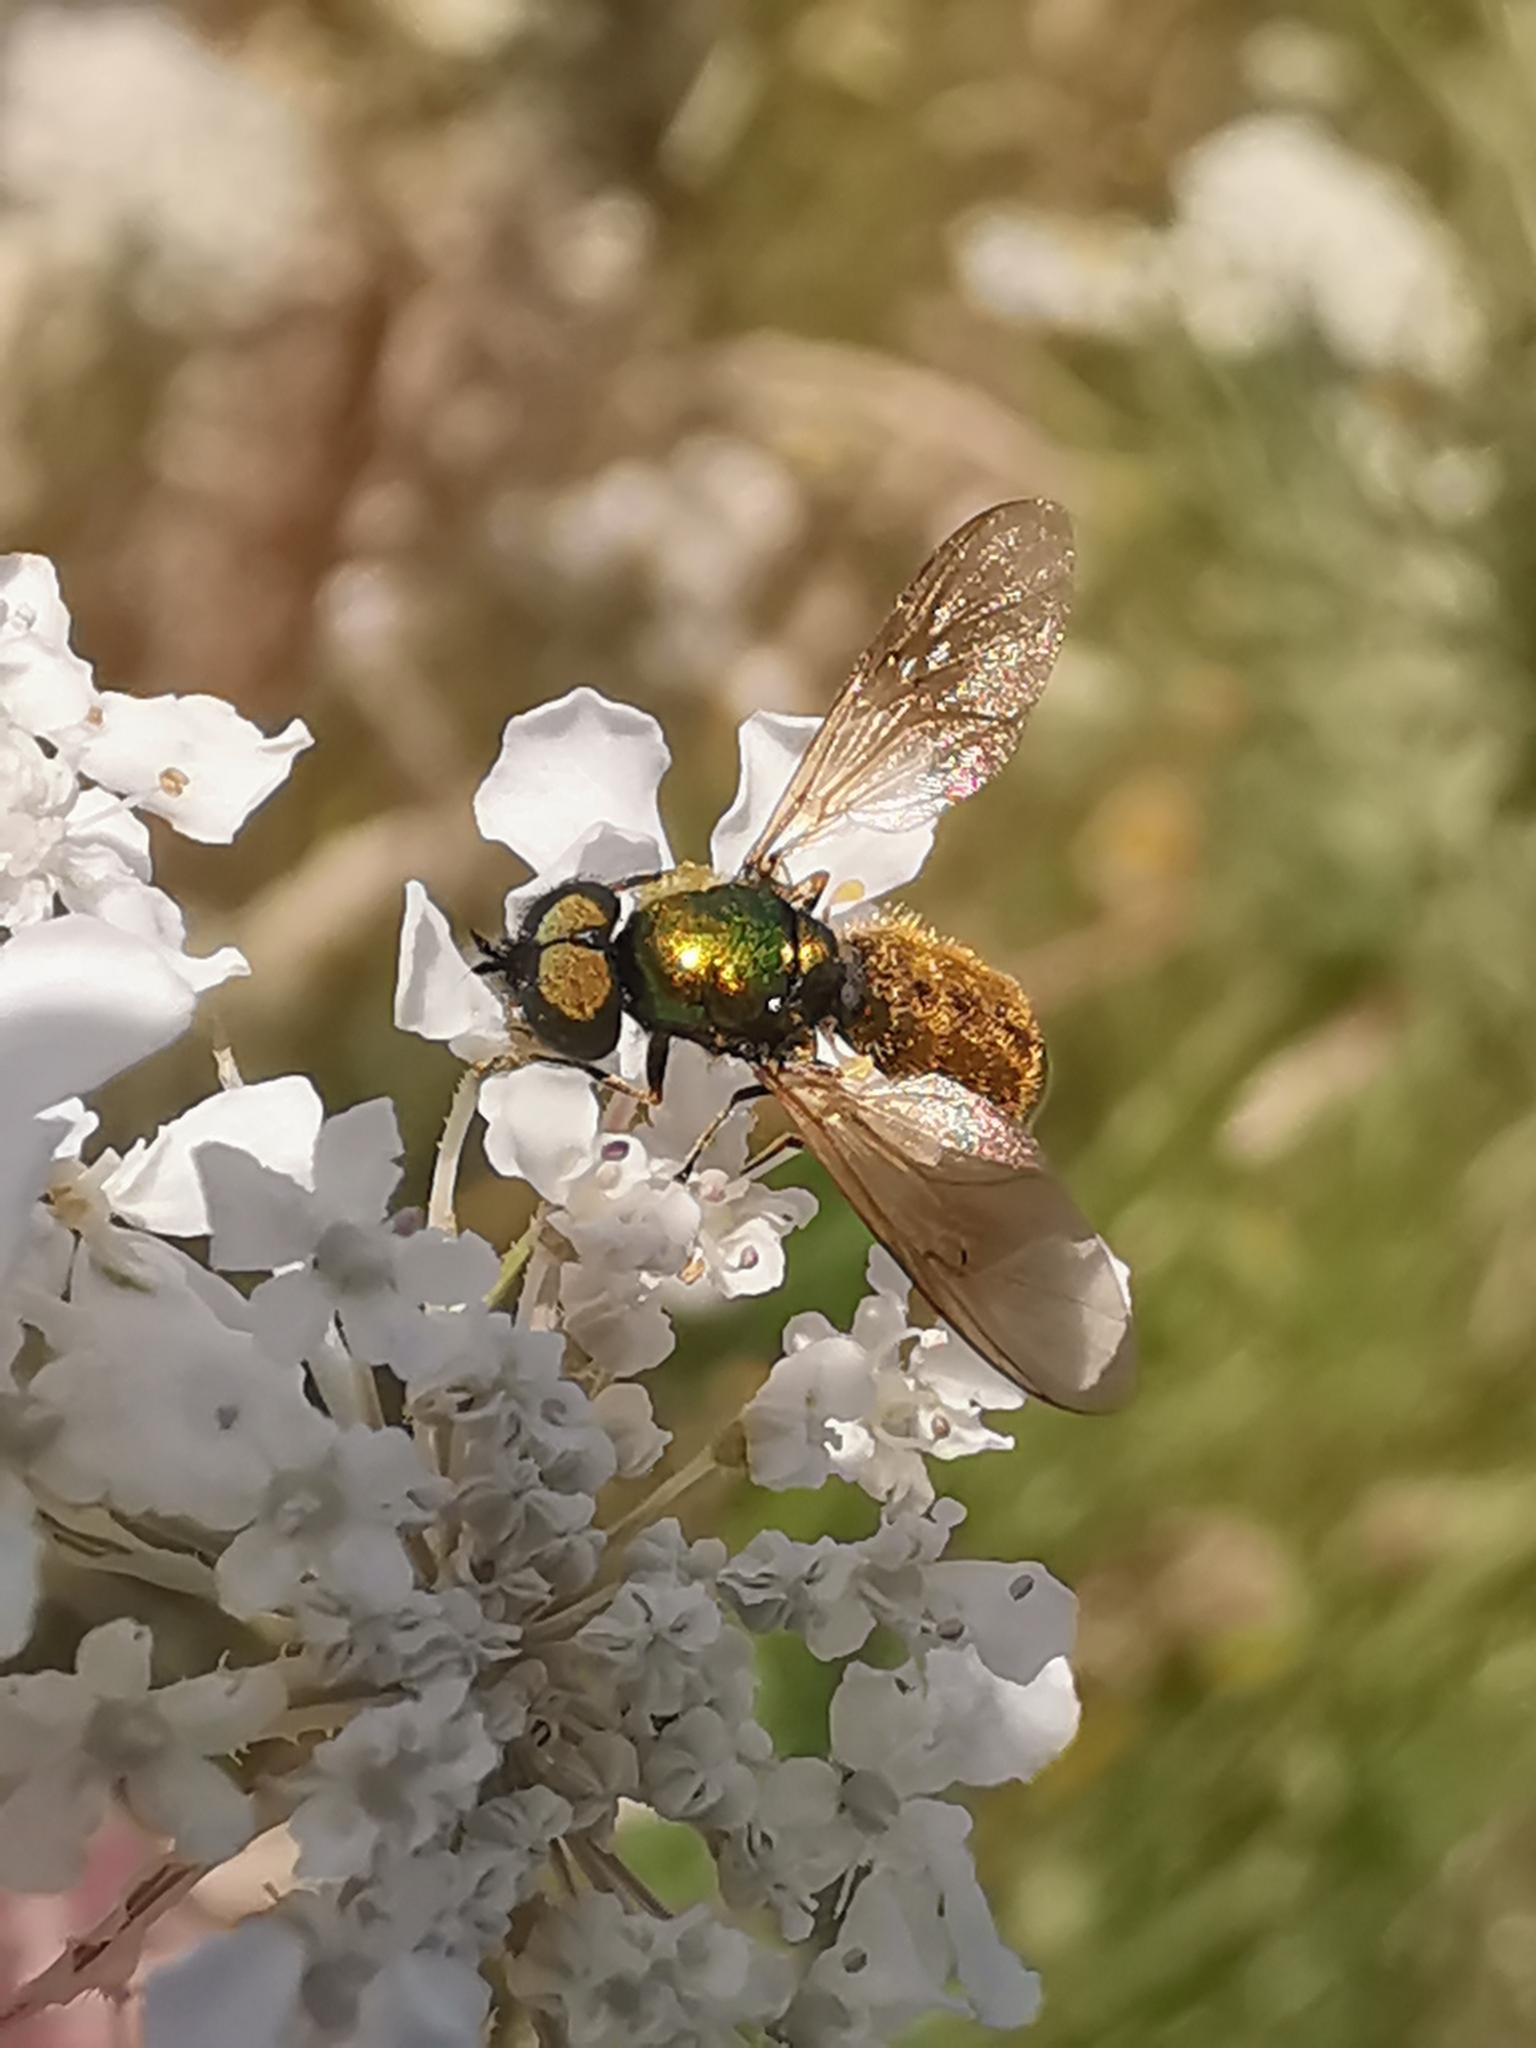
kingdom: Animalia
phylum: Arthropoda
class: Insecta
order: Diptera
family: Stratiomyidae
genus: Chloromyia
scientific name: Chloromyia formosa
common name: Soldier fly
